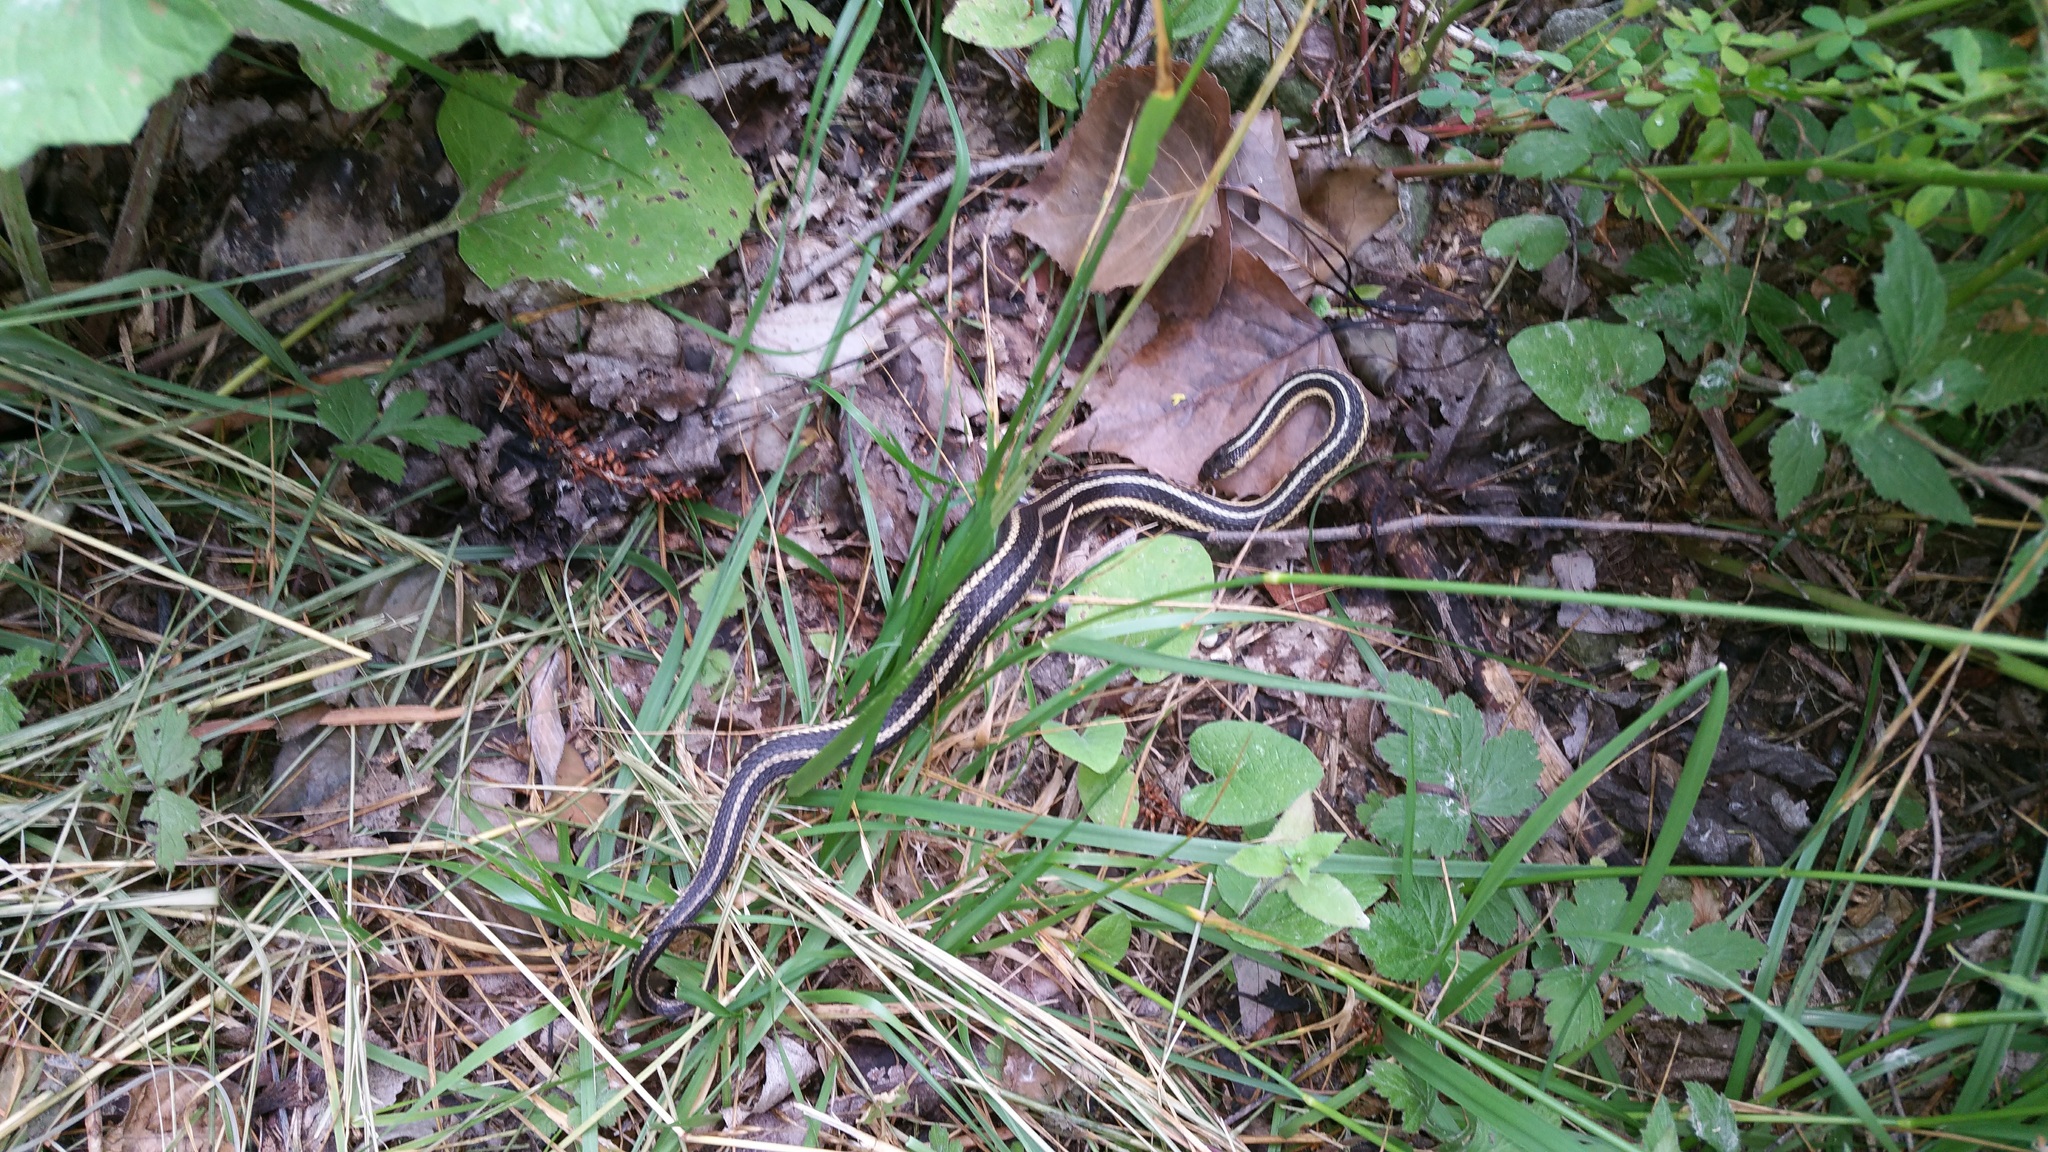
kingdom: Animalia
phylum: Chordata
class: Squamata
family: Colubridae
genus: Thamnophis
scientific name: Thamnophis butleri
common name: Butler's garter snake
